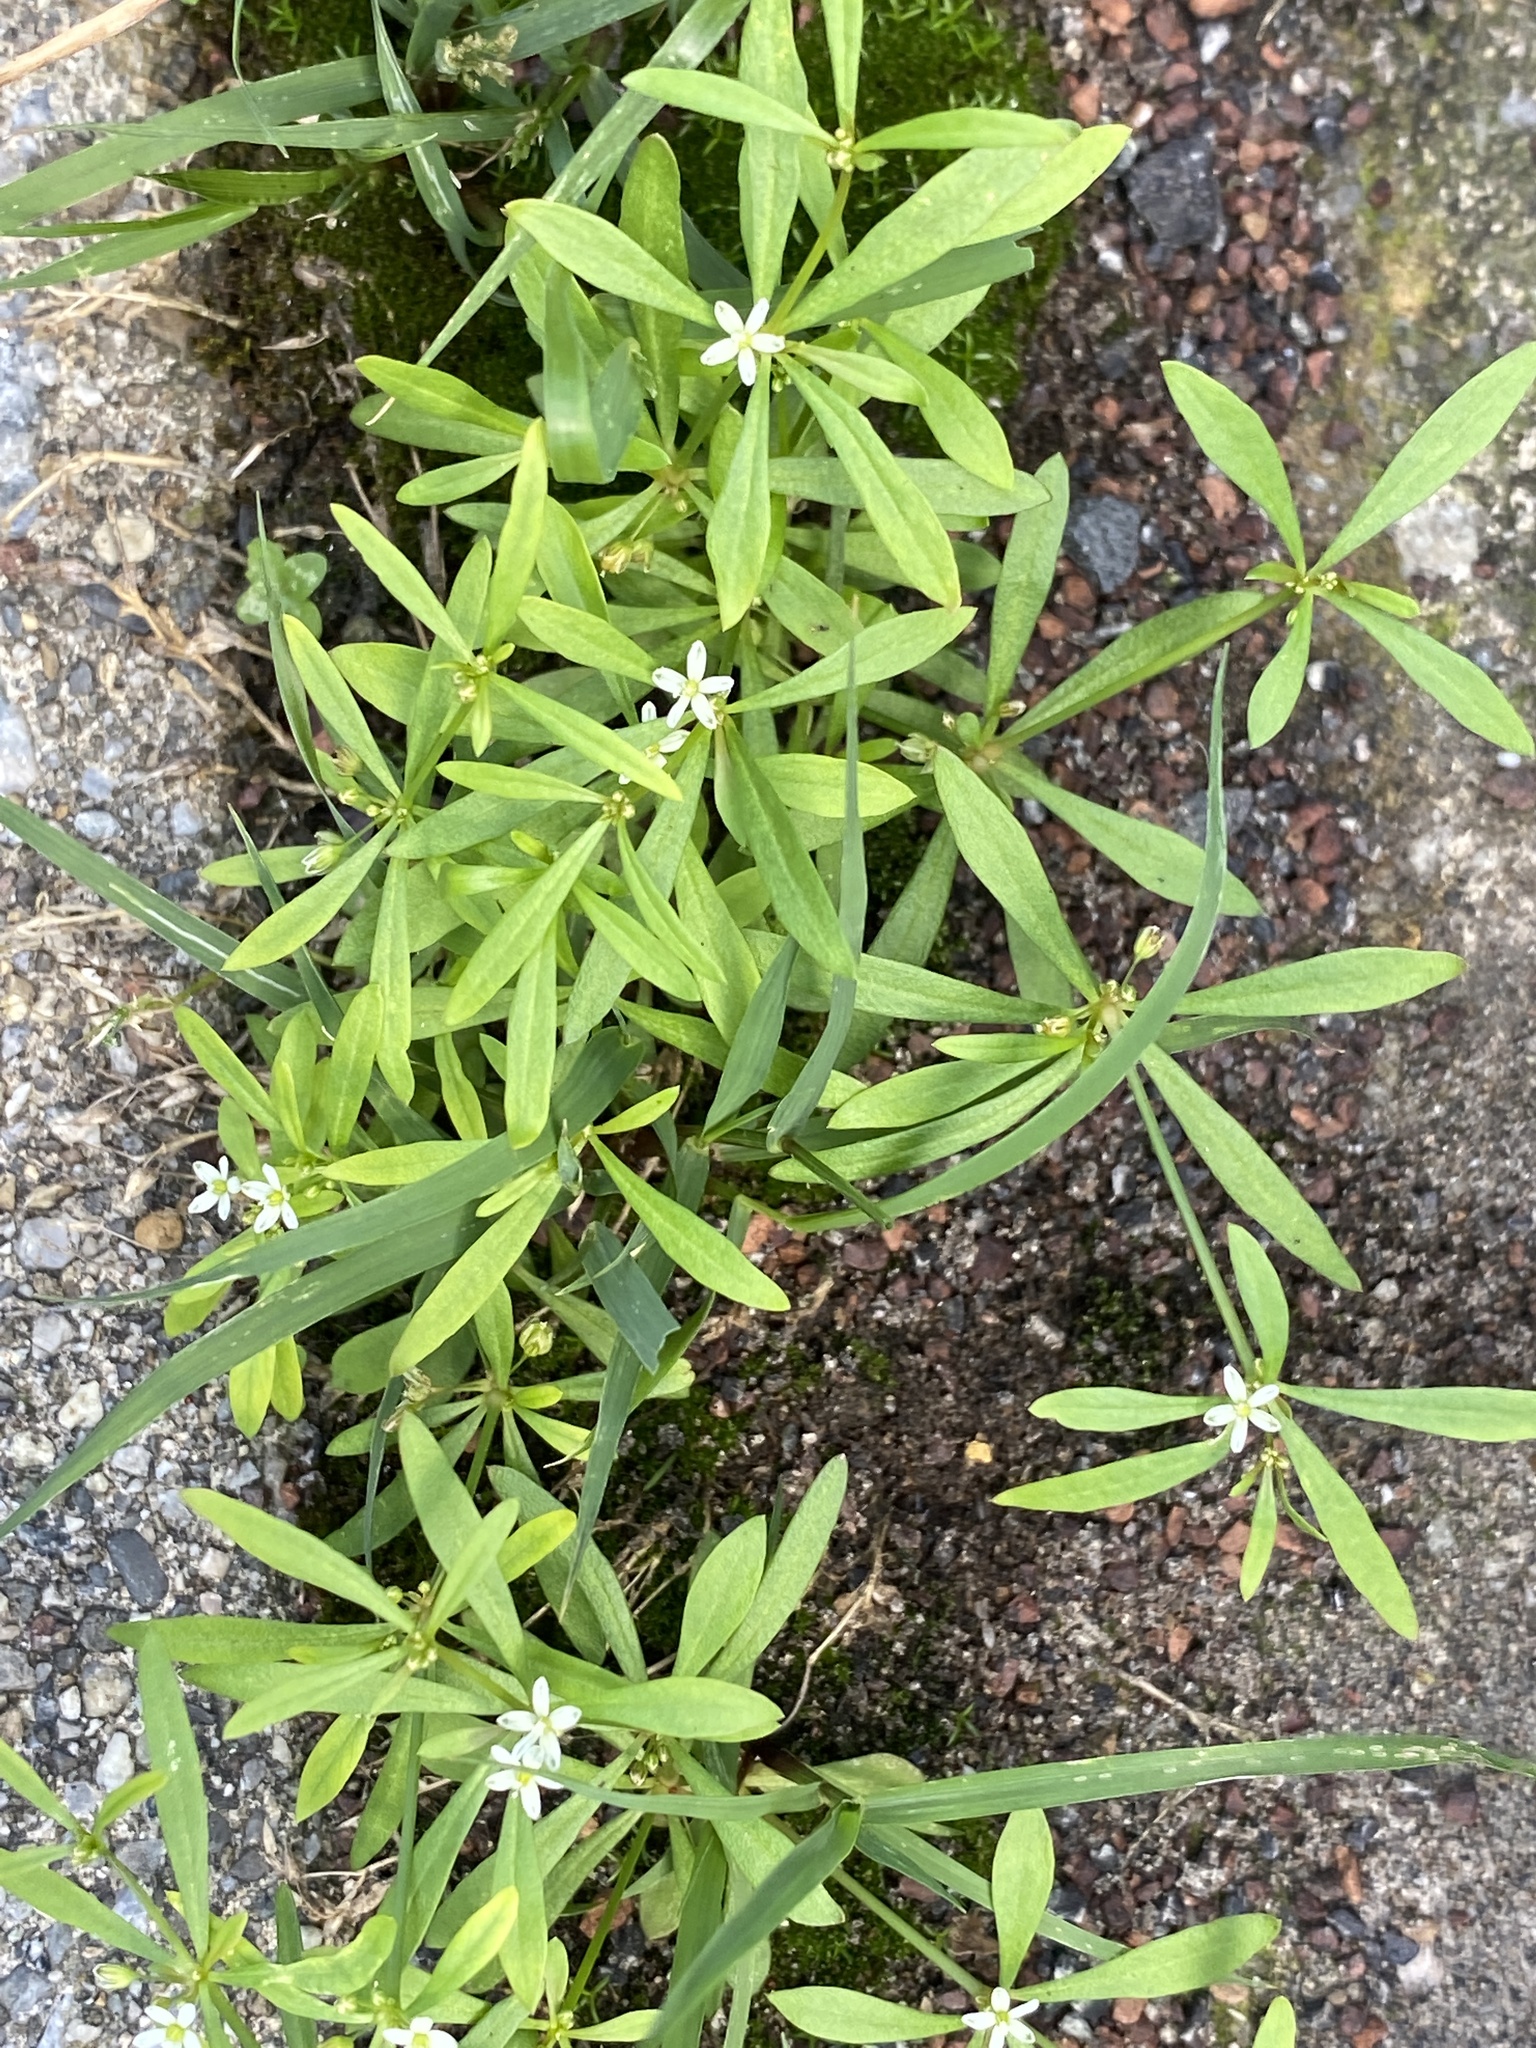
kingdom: Plantae
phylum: Tracheophyta
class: Magnoliopsida
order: Caryophyllales
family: Molluginaceae
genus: Mollugo
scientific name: Mollugo verticillata
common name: Green carpetweed
